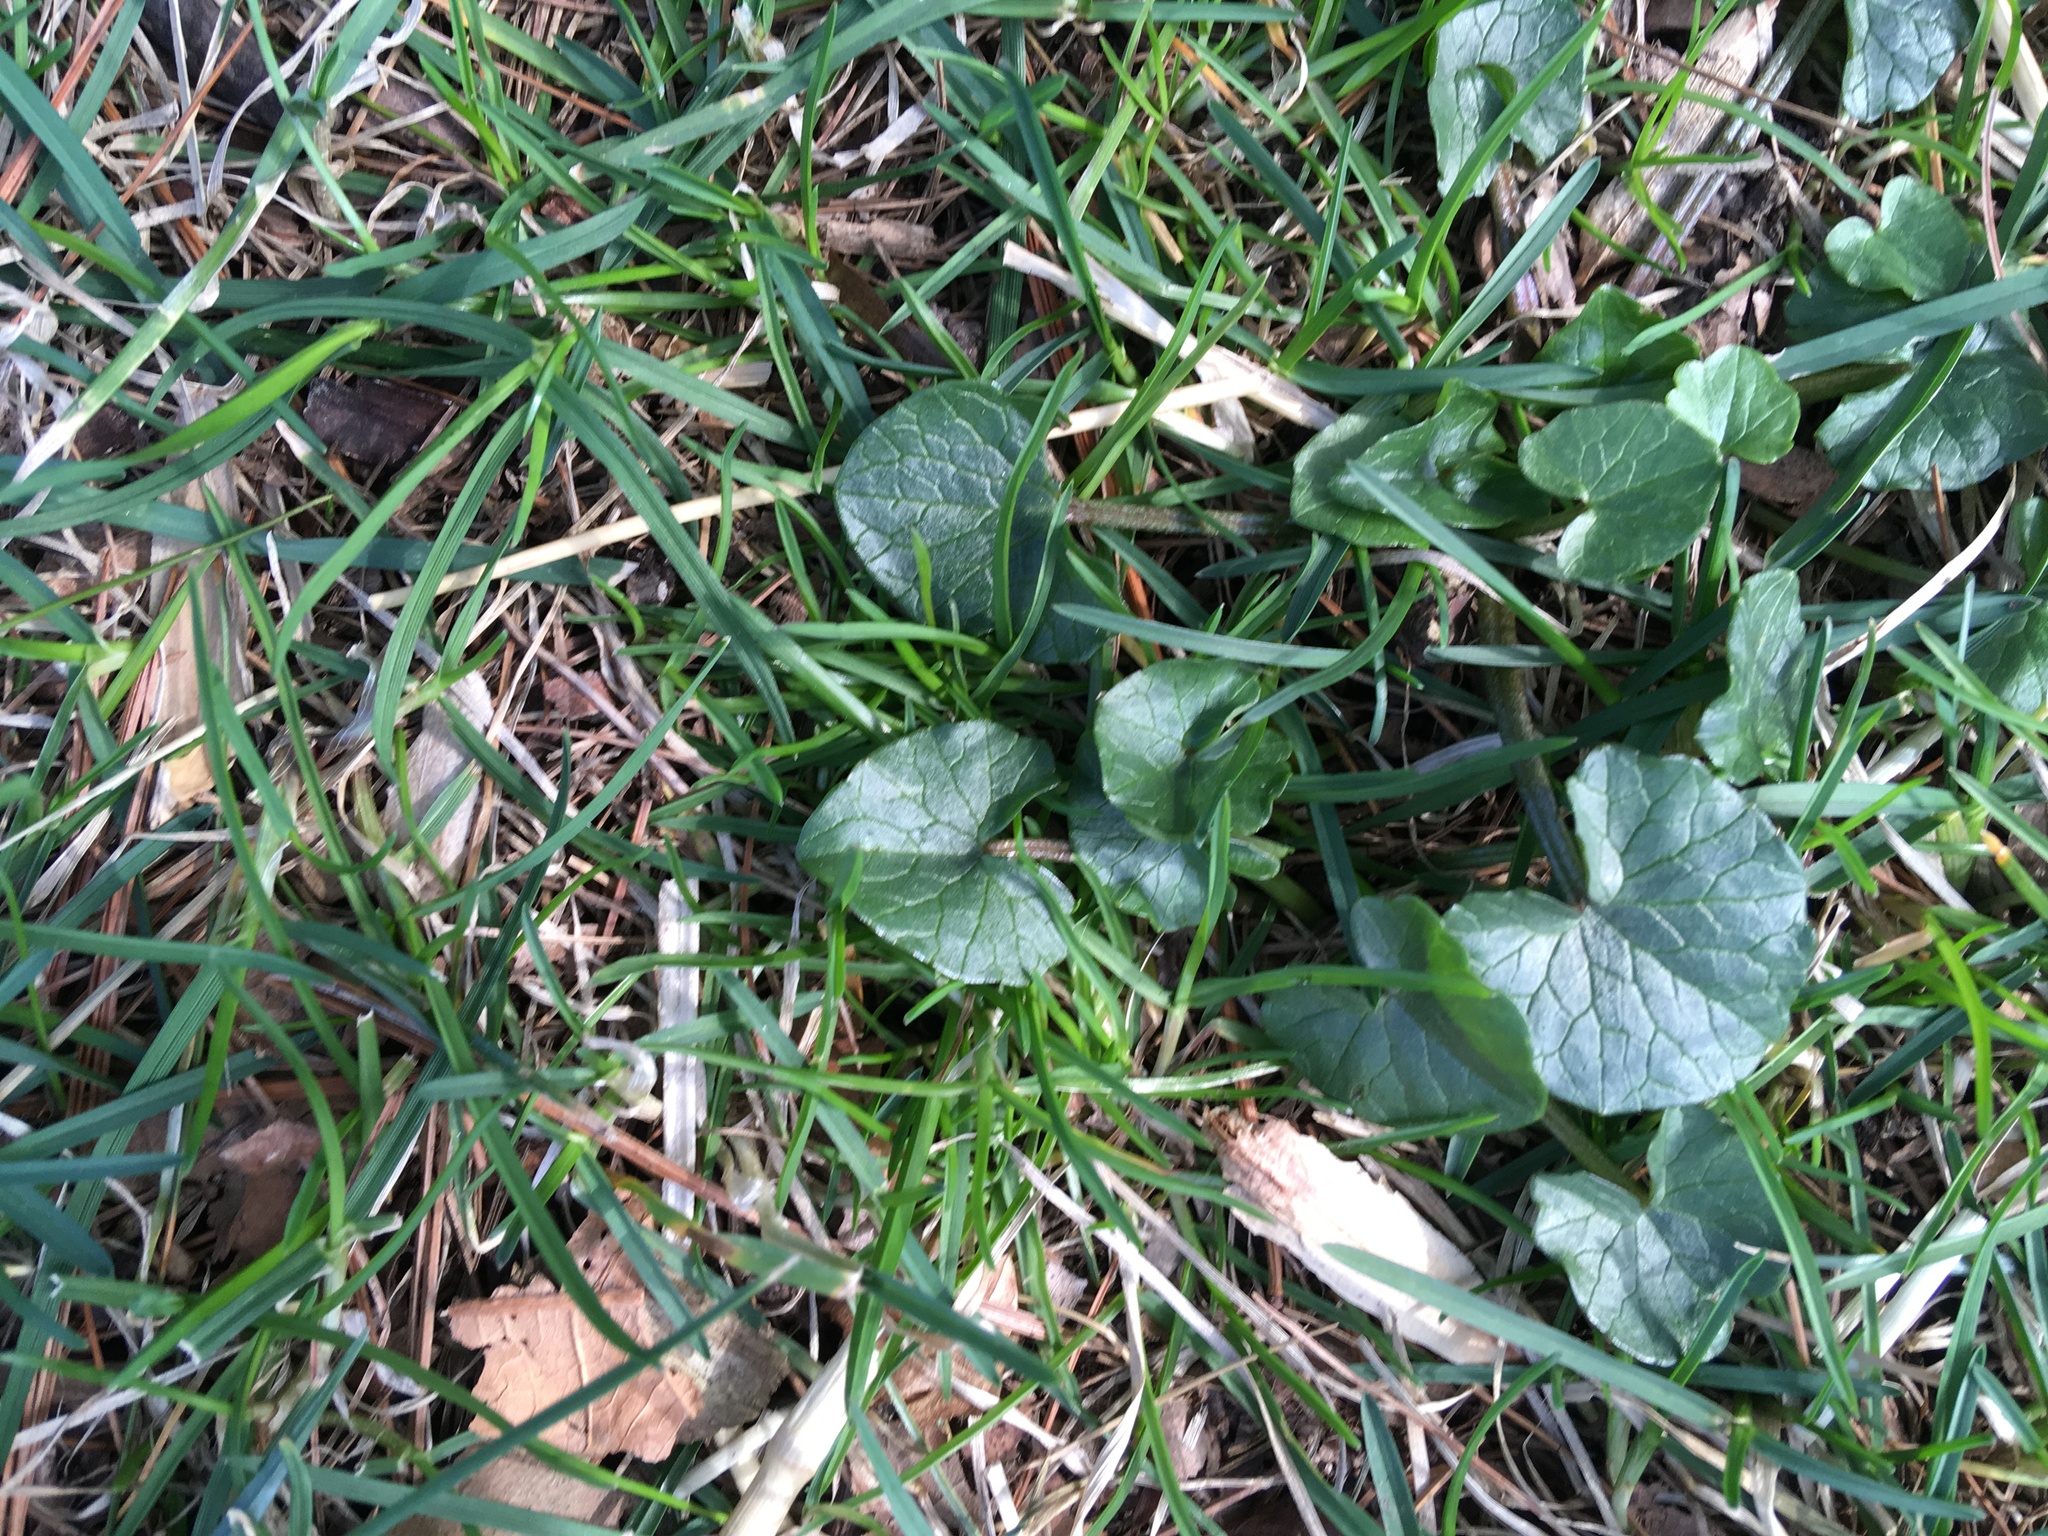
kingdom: Plantae
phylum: Tracheophyta
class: Magnoliopsida
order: Ranunculales
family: Ranunculaceae
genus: Ficaria
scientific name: Ficaria verna
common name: Lesser celandine
